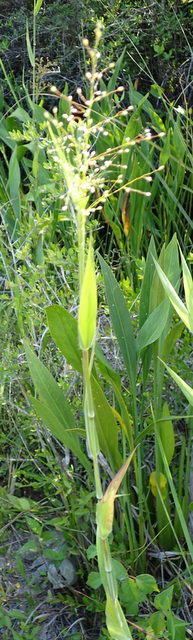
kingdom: Plantae
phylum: Tracheophyta
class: Liliopsida
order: Poales
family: Poaceae
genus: Dichanthelium
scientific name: Dichanthelium scoparium
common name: Velvety panic grass
